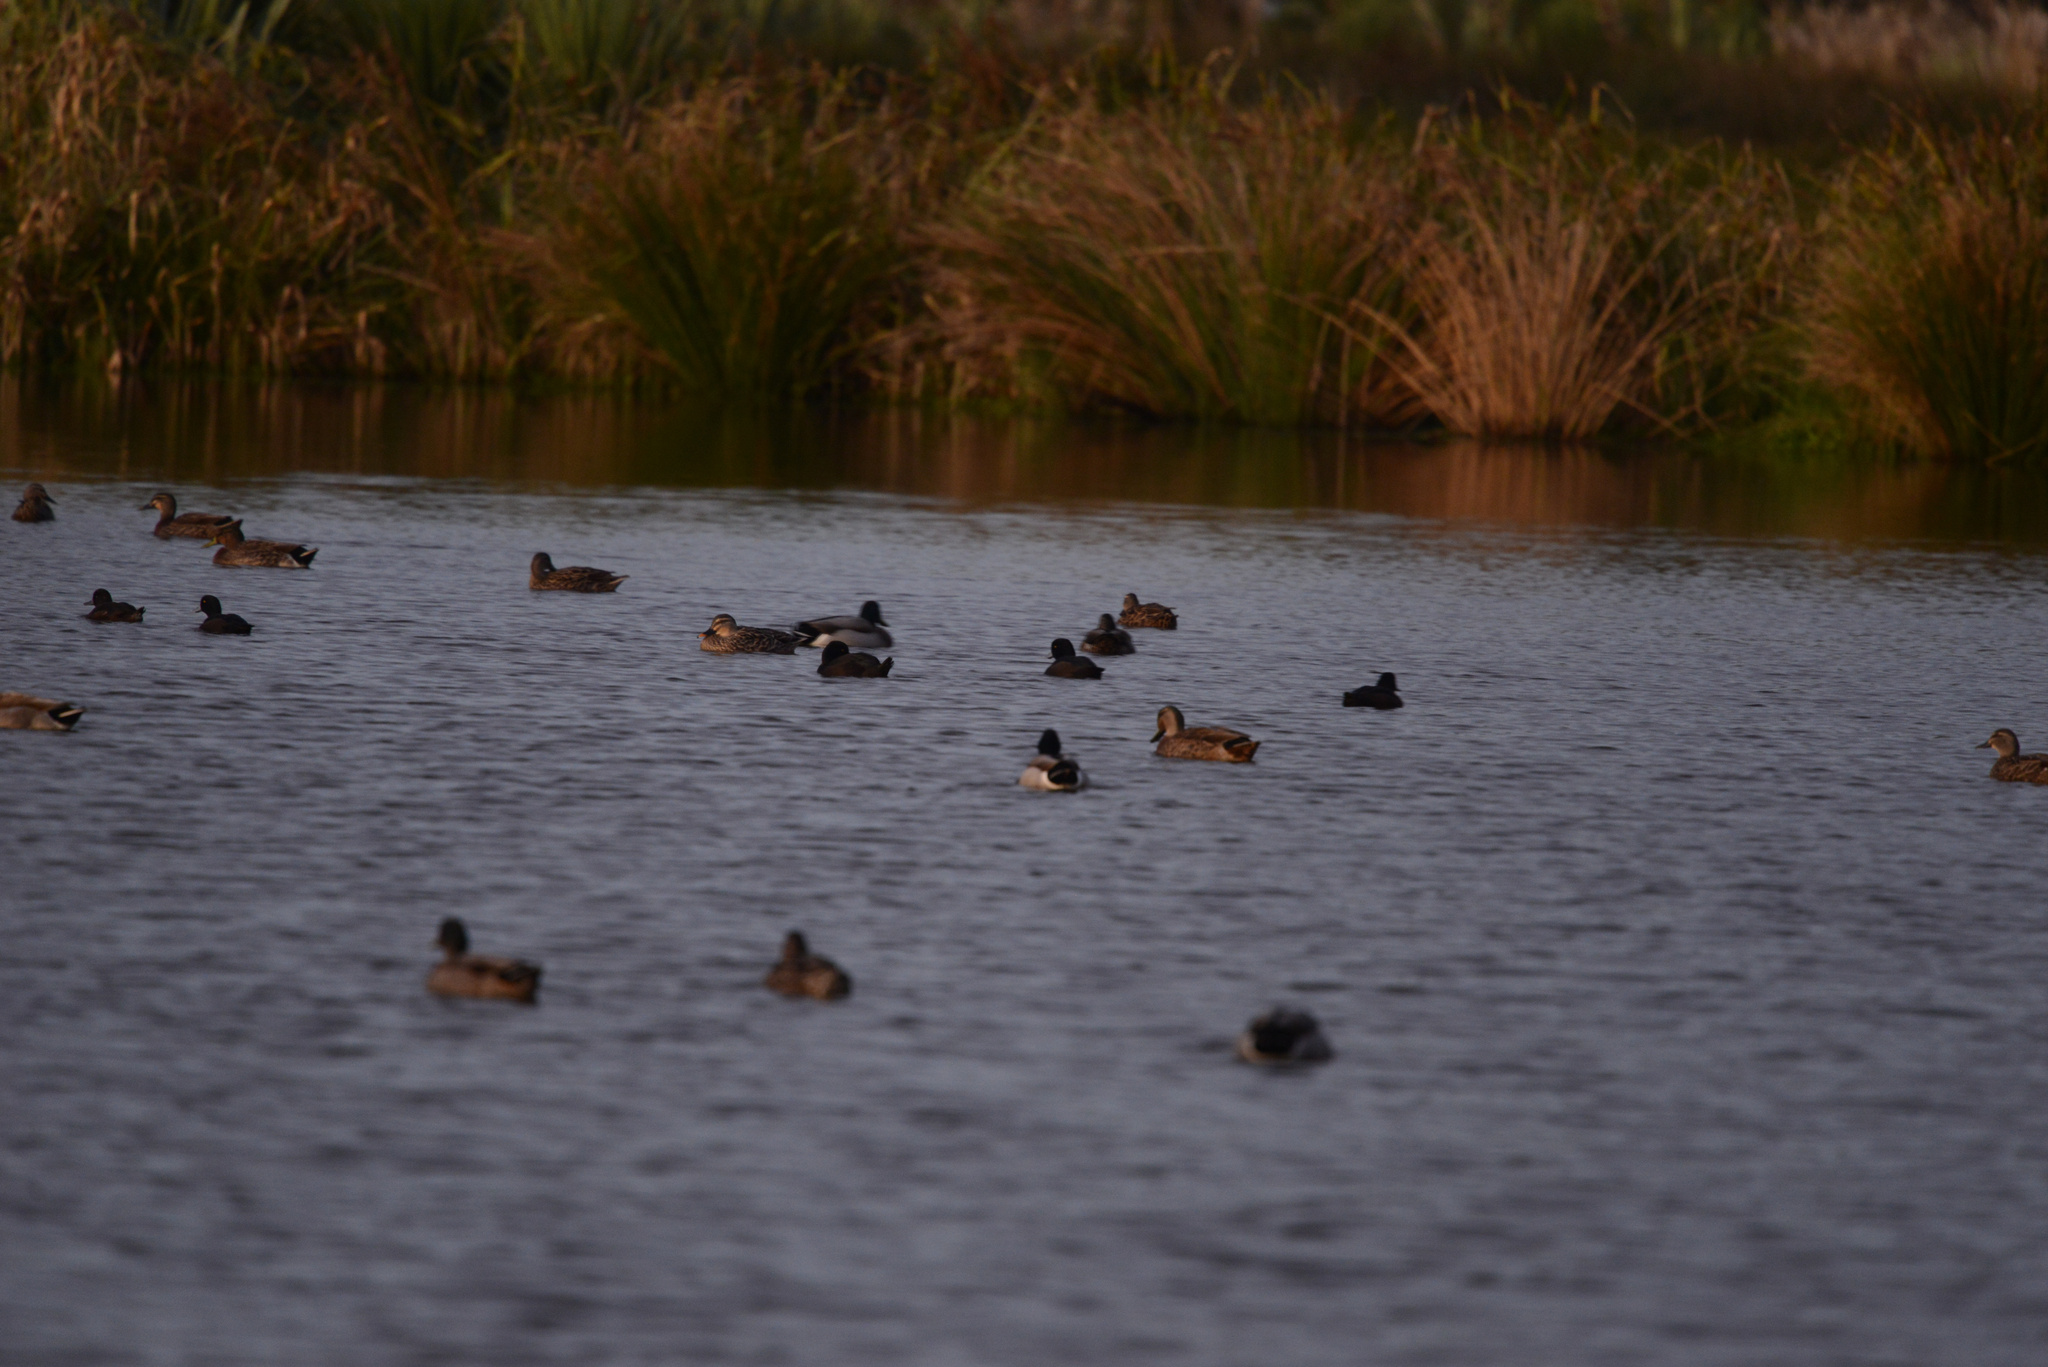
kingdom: Animalia
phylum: Chordata
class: Aves
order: Anseriformes
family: Anatidae
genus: Anas
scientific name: Anas
